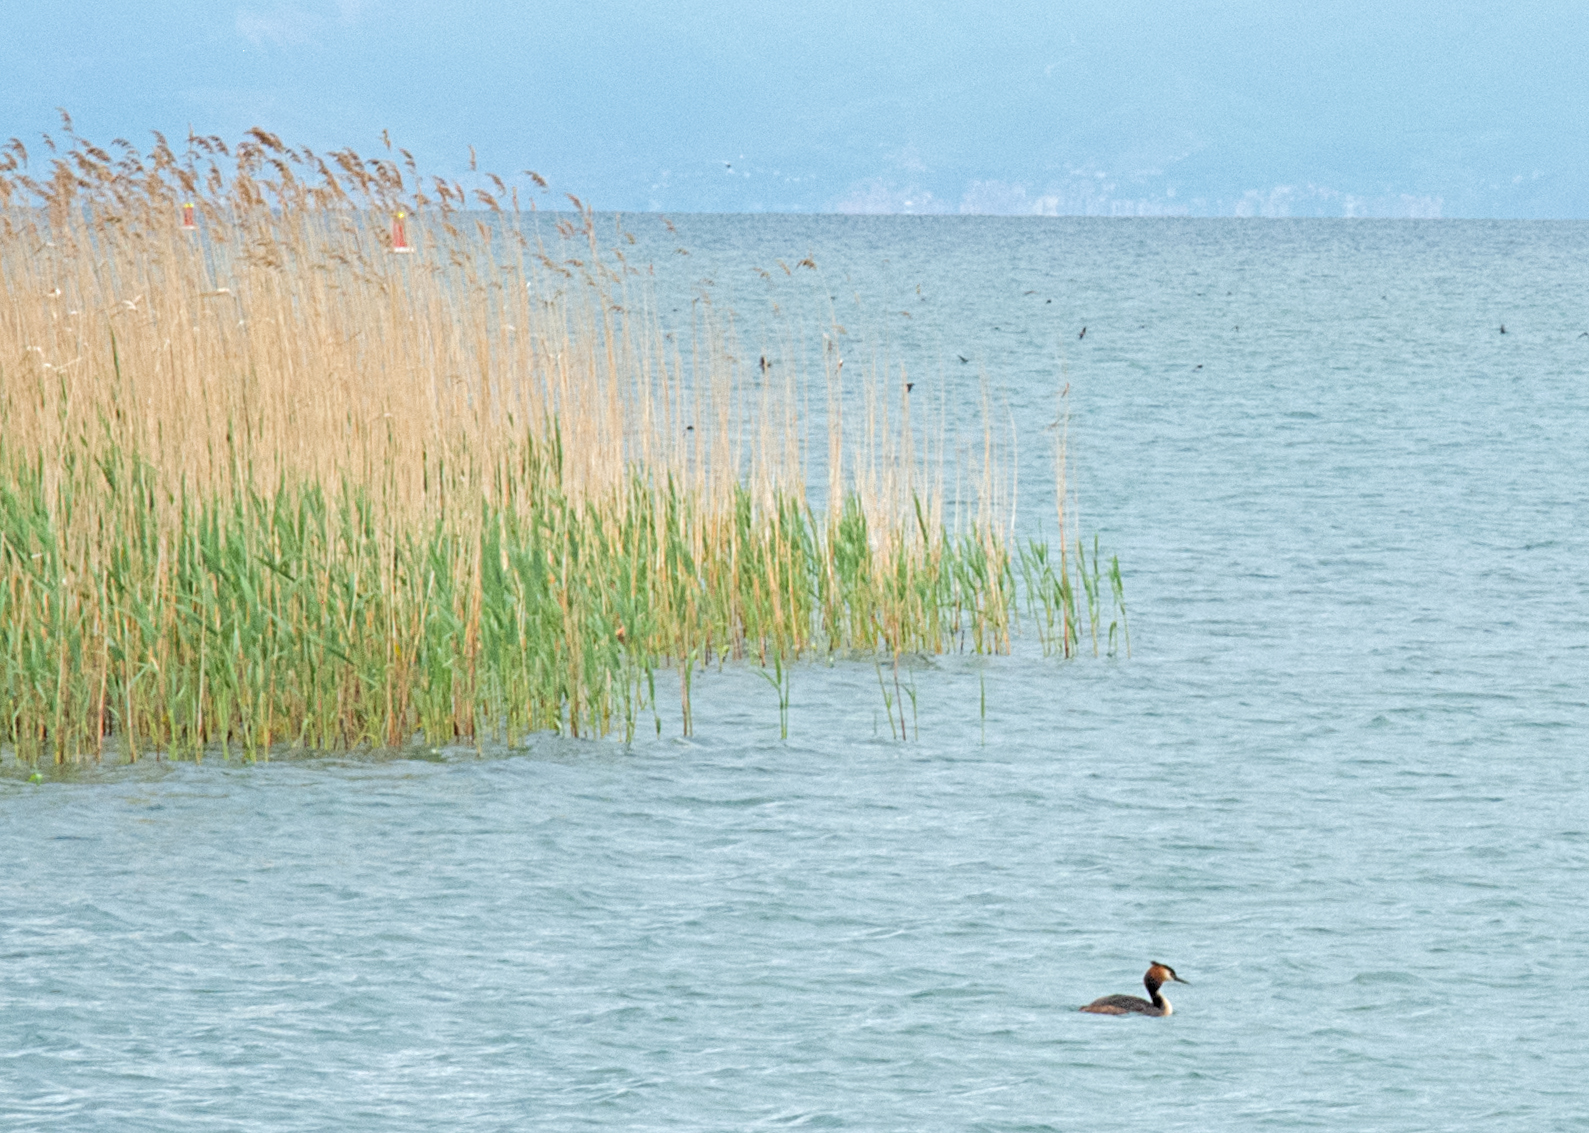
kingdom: Animalia
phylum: Chordata
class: Aves
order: Podicipediformes
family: Podicipedidae
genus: Podiceps
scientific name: Podiceps cristatus
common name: Great crested grebe
